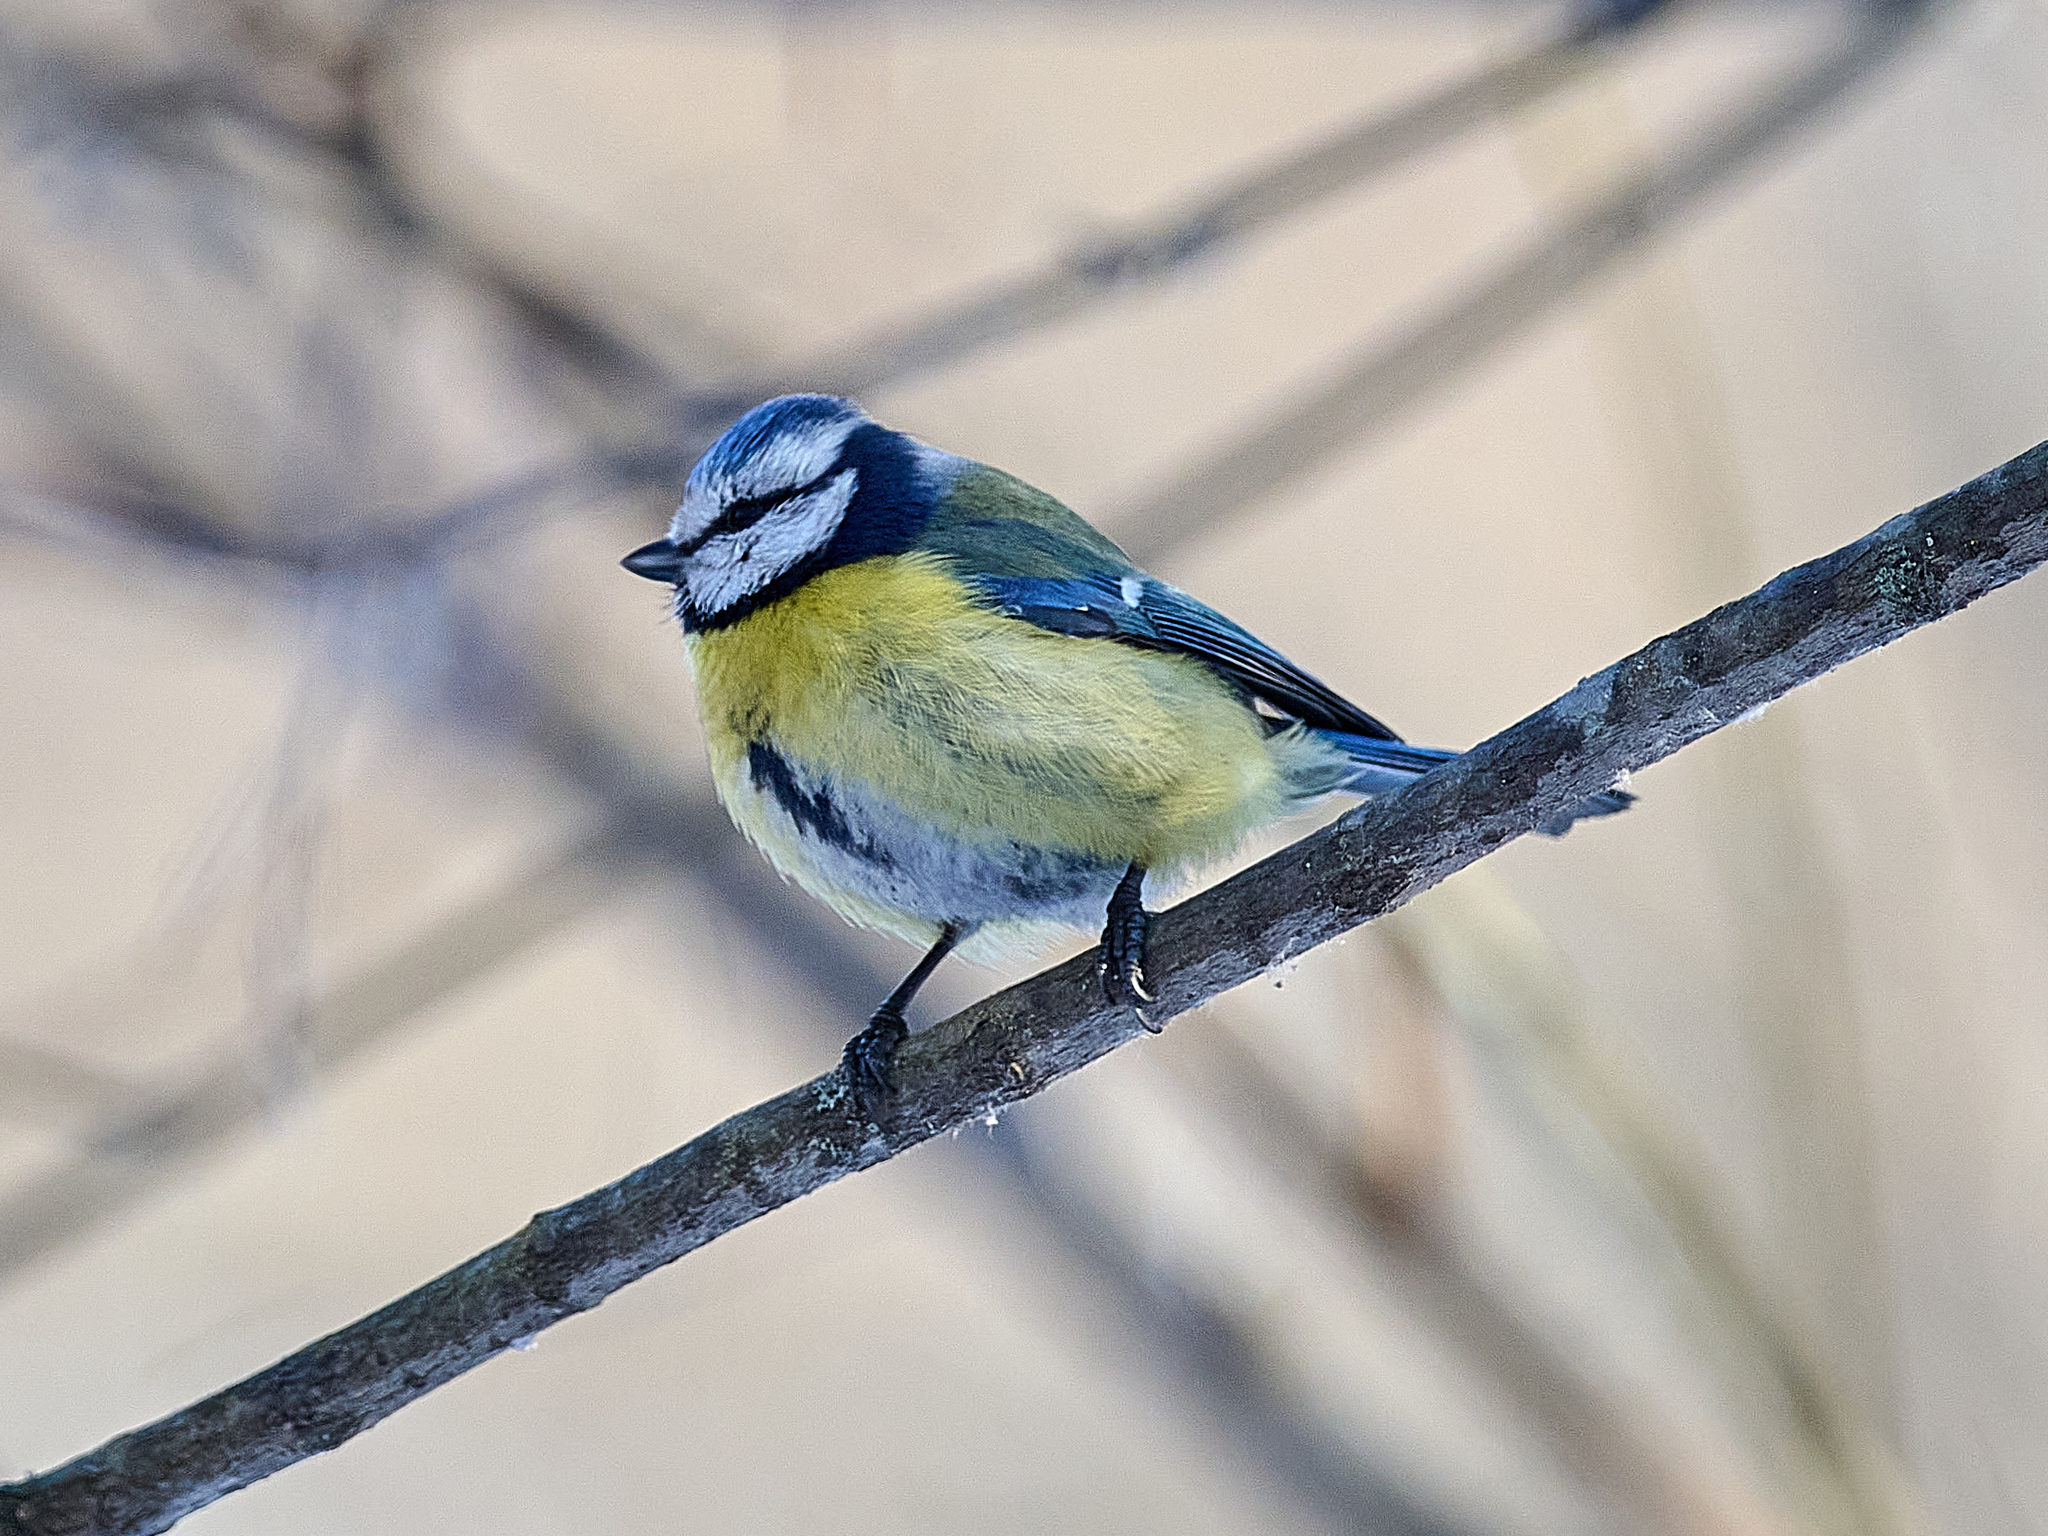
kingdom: Animalia
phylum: Chordata
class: Aves
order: Passeriformes
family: Paridae
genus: Cyanistes
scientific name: Cyanistes caeruleus
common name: Eurasian blue tit
